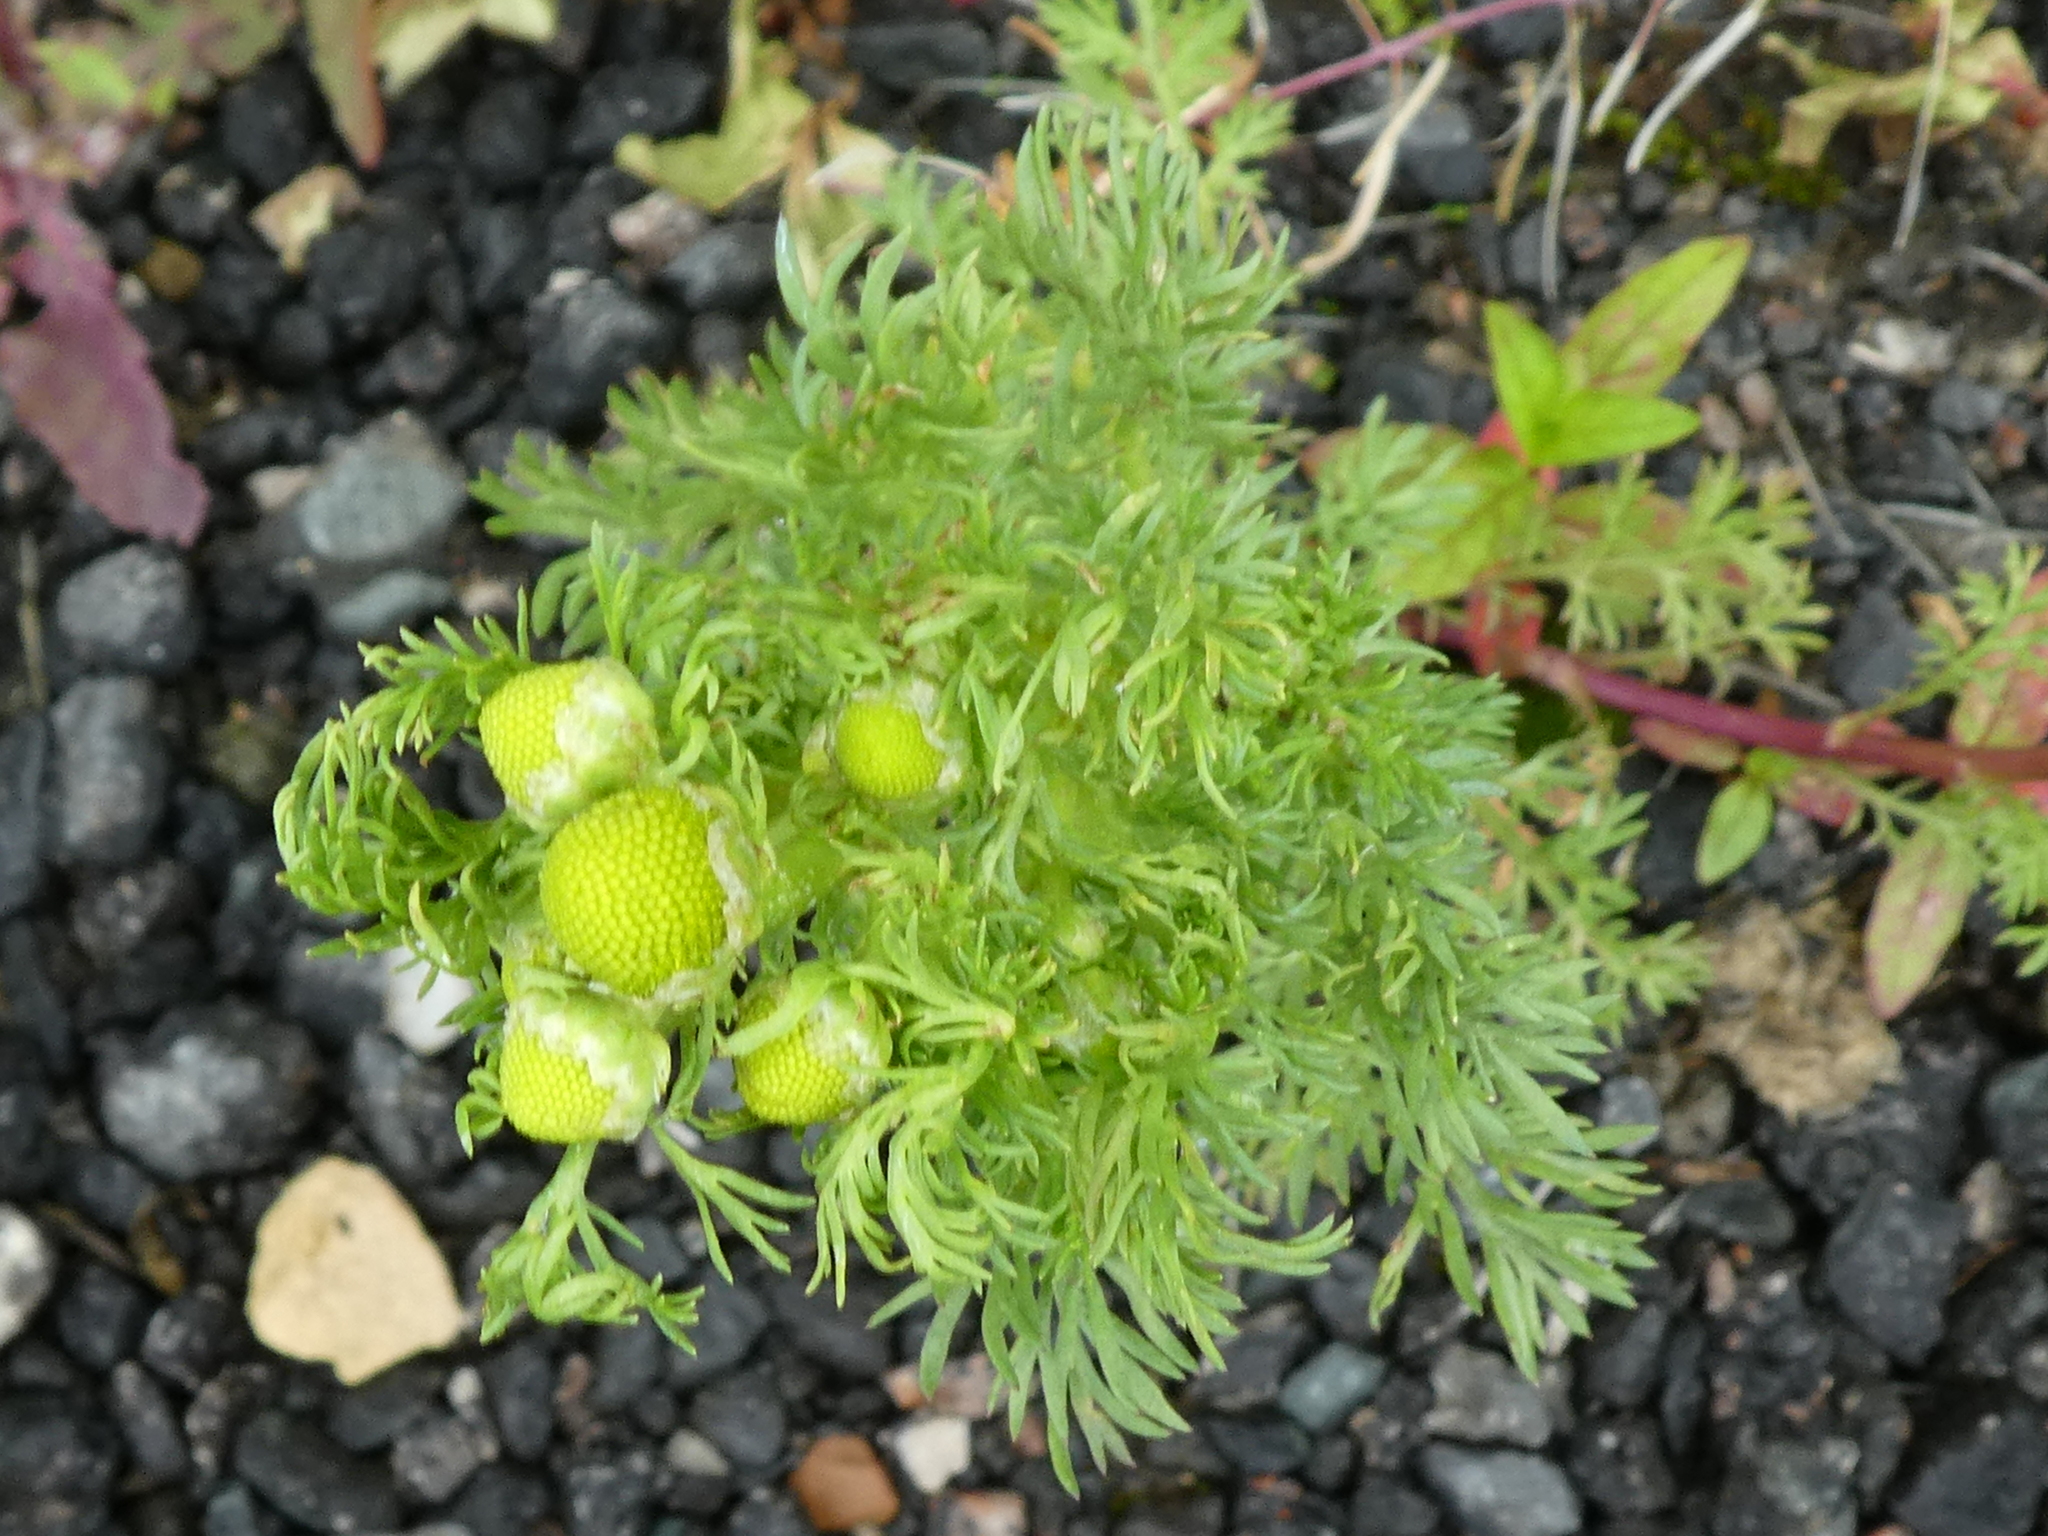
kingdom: Plantae
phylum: Tracheophyta
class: Magnoliopsida
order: Asterales
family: Asteraceae
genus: Matricaria
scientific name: Matricaria discoidea
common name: Disc mayweed
